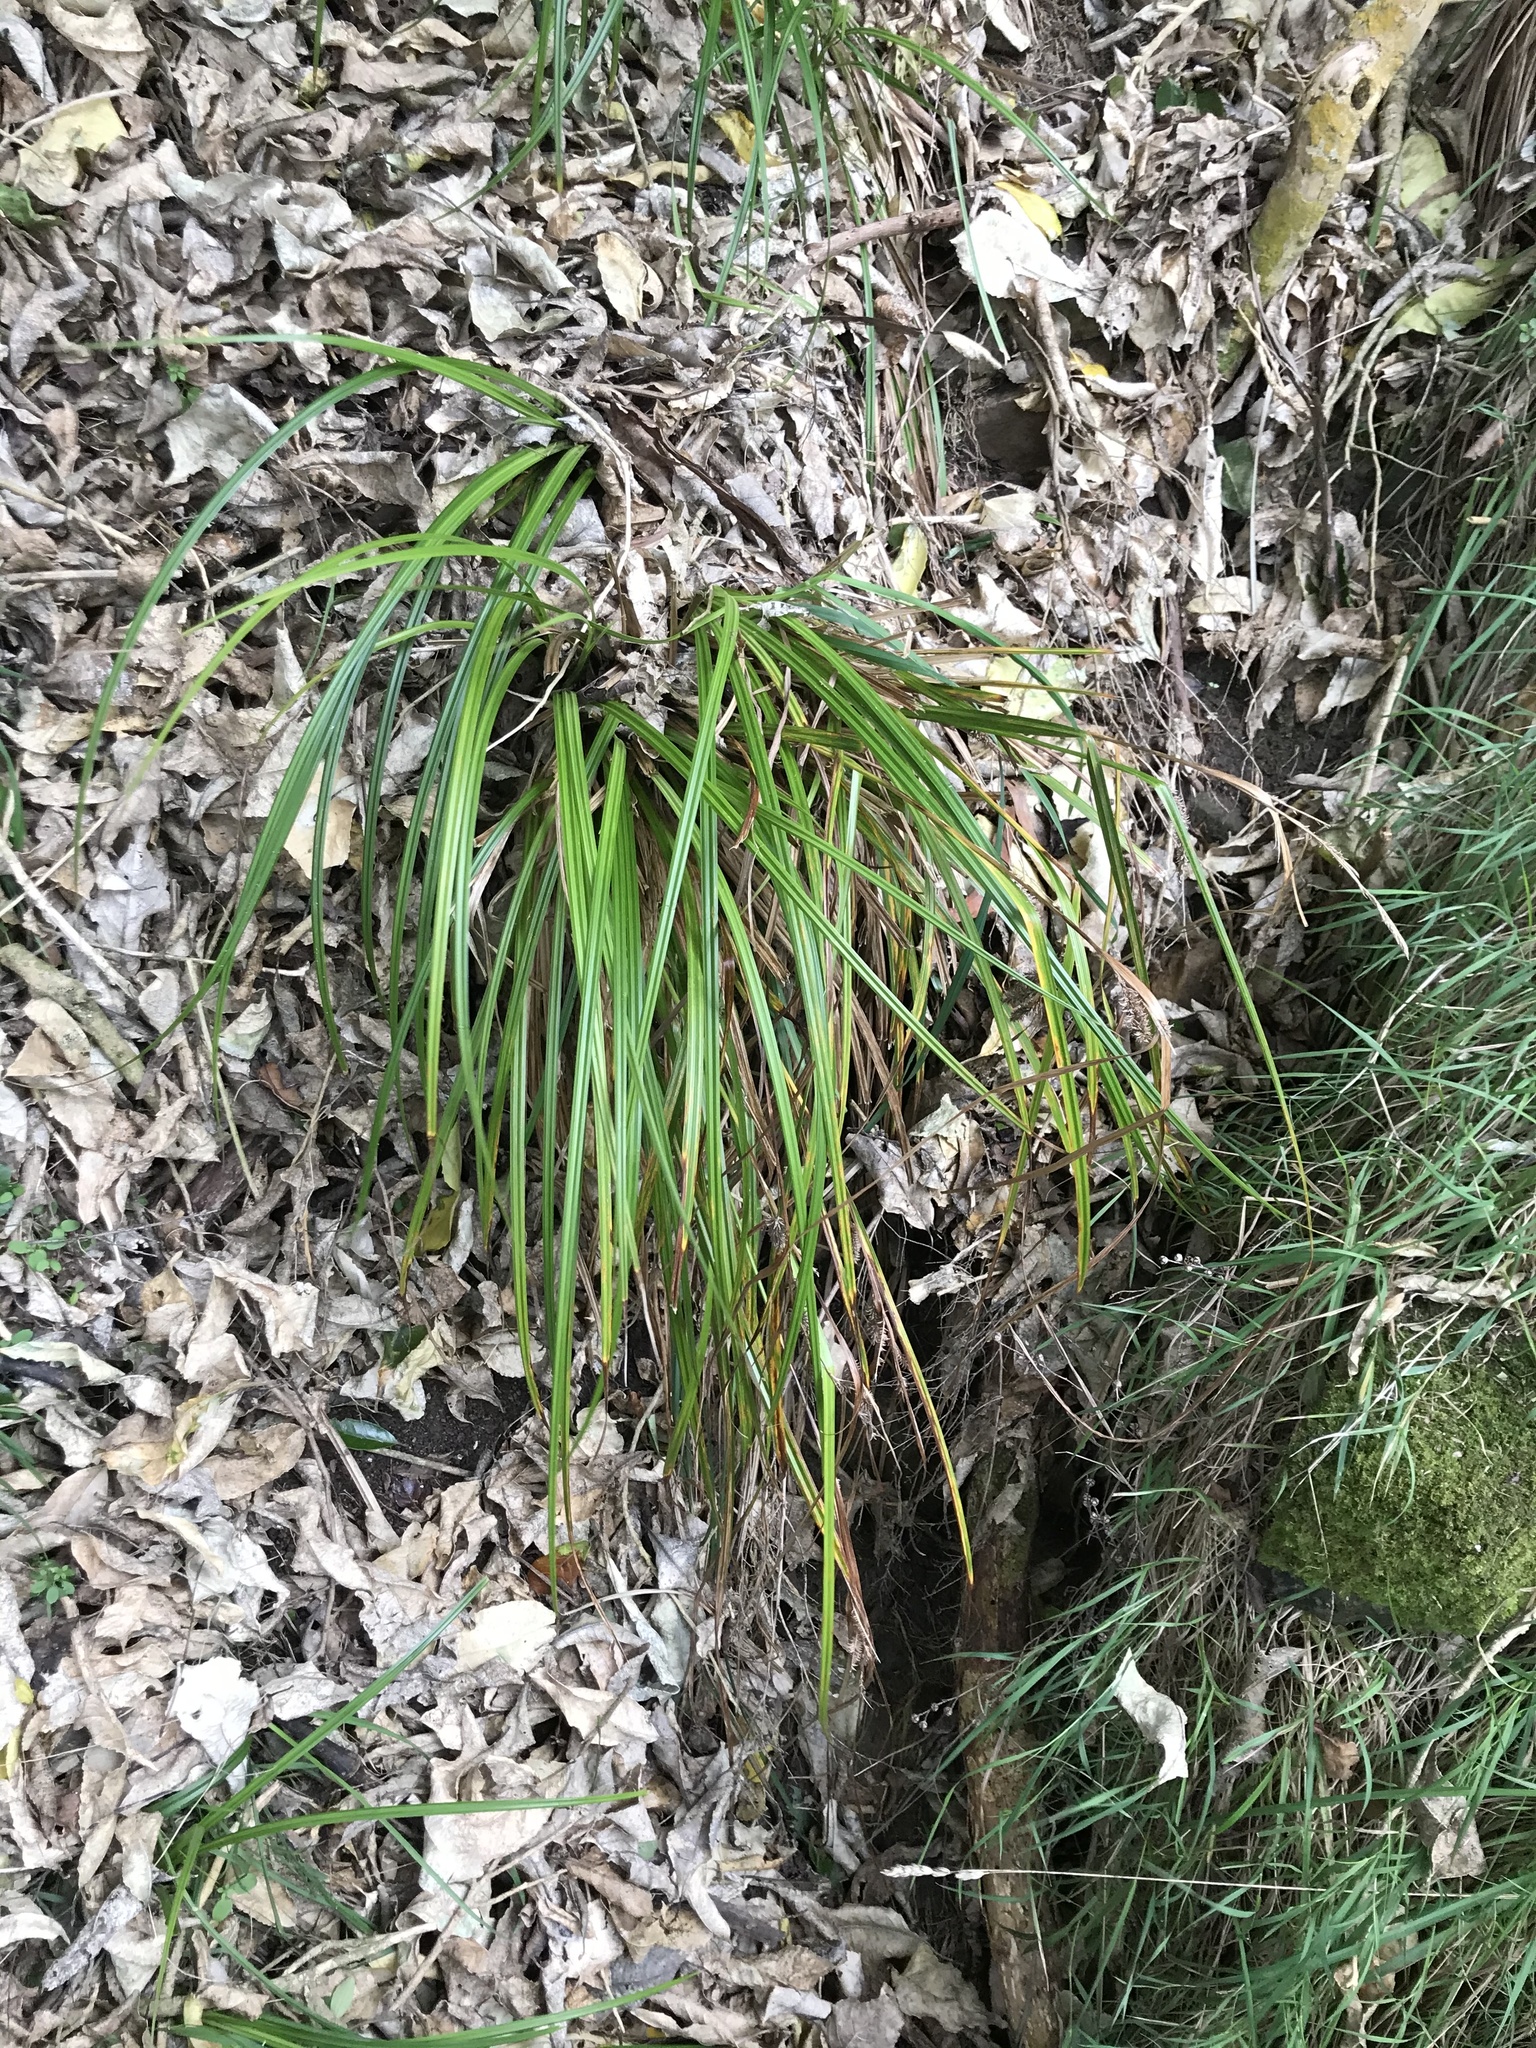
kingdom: Plantae
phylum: Tracheophyta
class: Liliopsida
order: Poales
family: Cyperaceae
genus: Carex
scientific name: Carex forsteri
